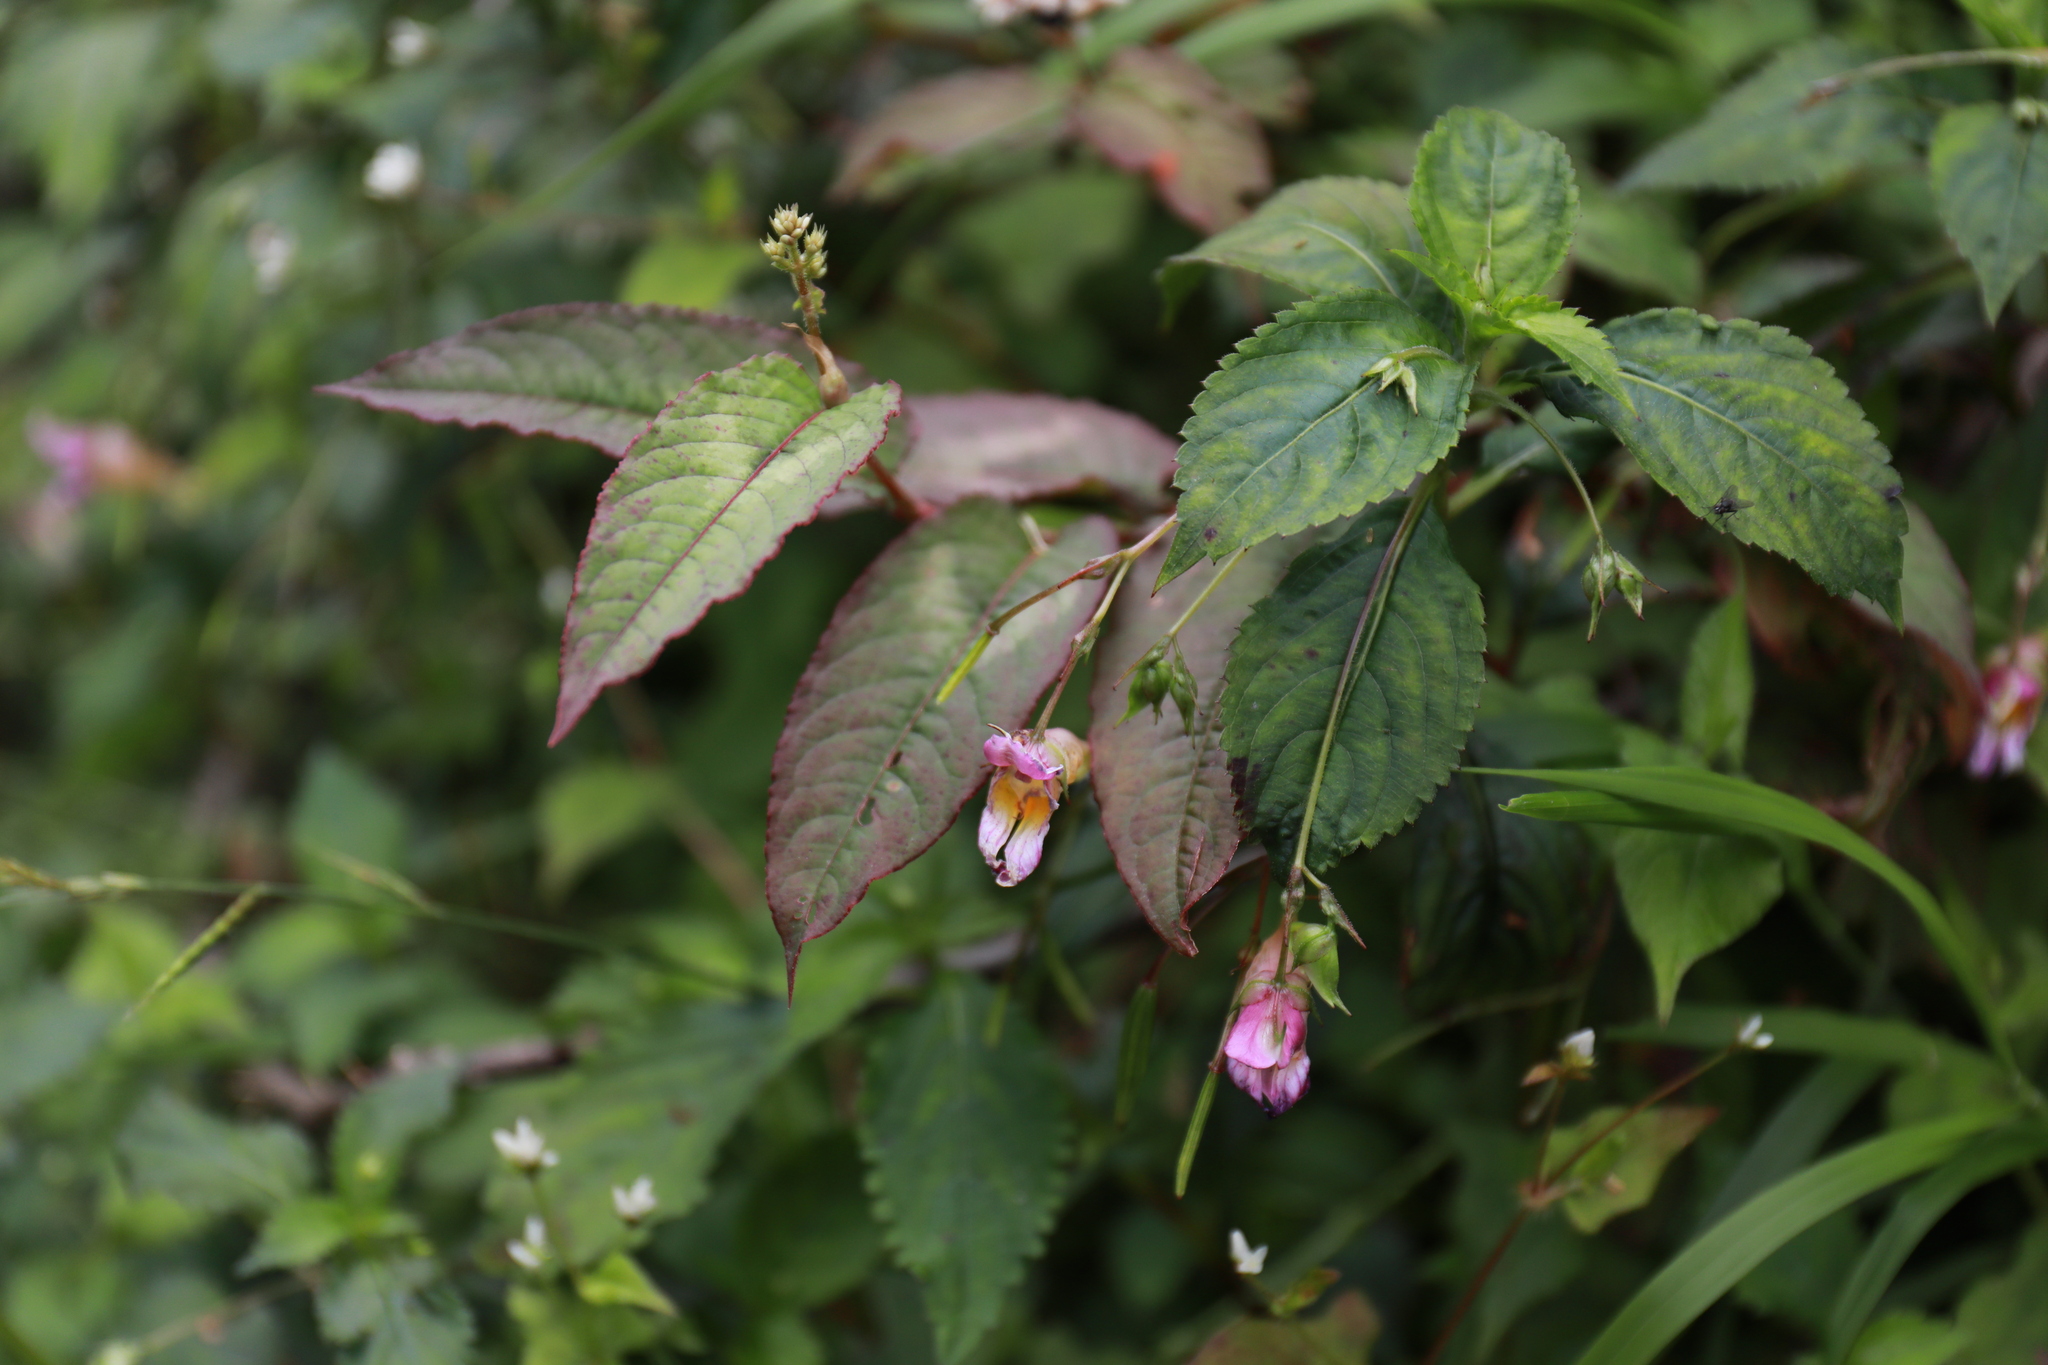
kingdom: Plantae
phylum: Tracheophyta
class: Magnoliopsida
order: Ericales
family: Balsaminaceae
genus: Impatiens
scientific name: Impatiens uniflora
